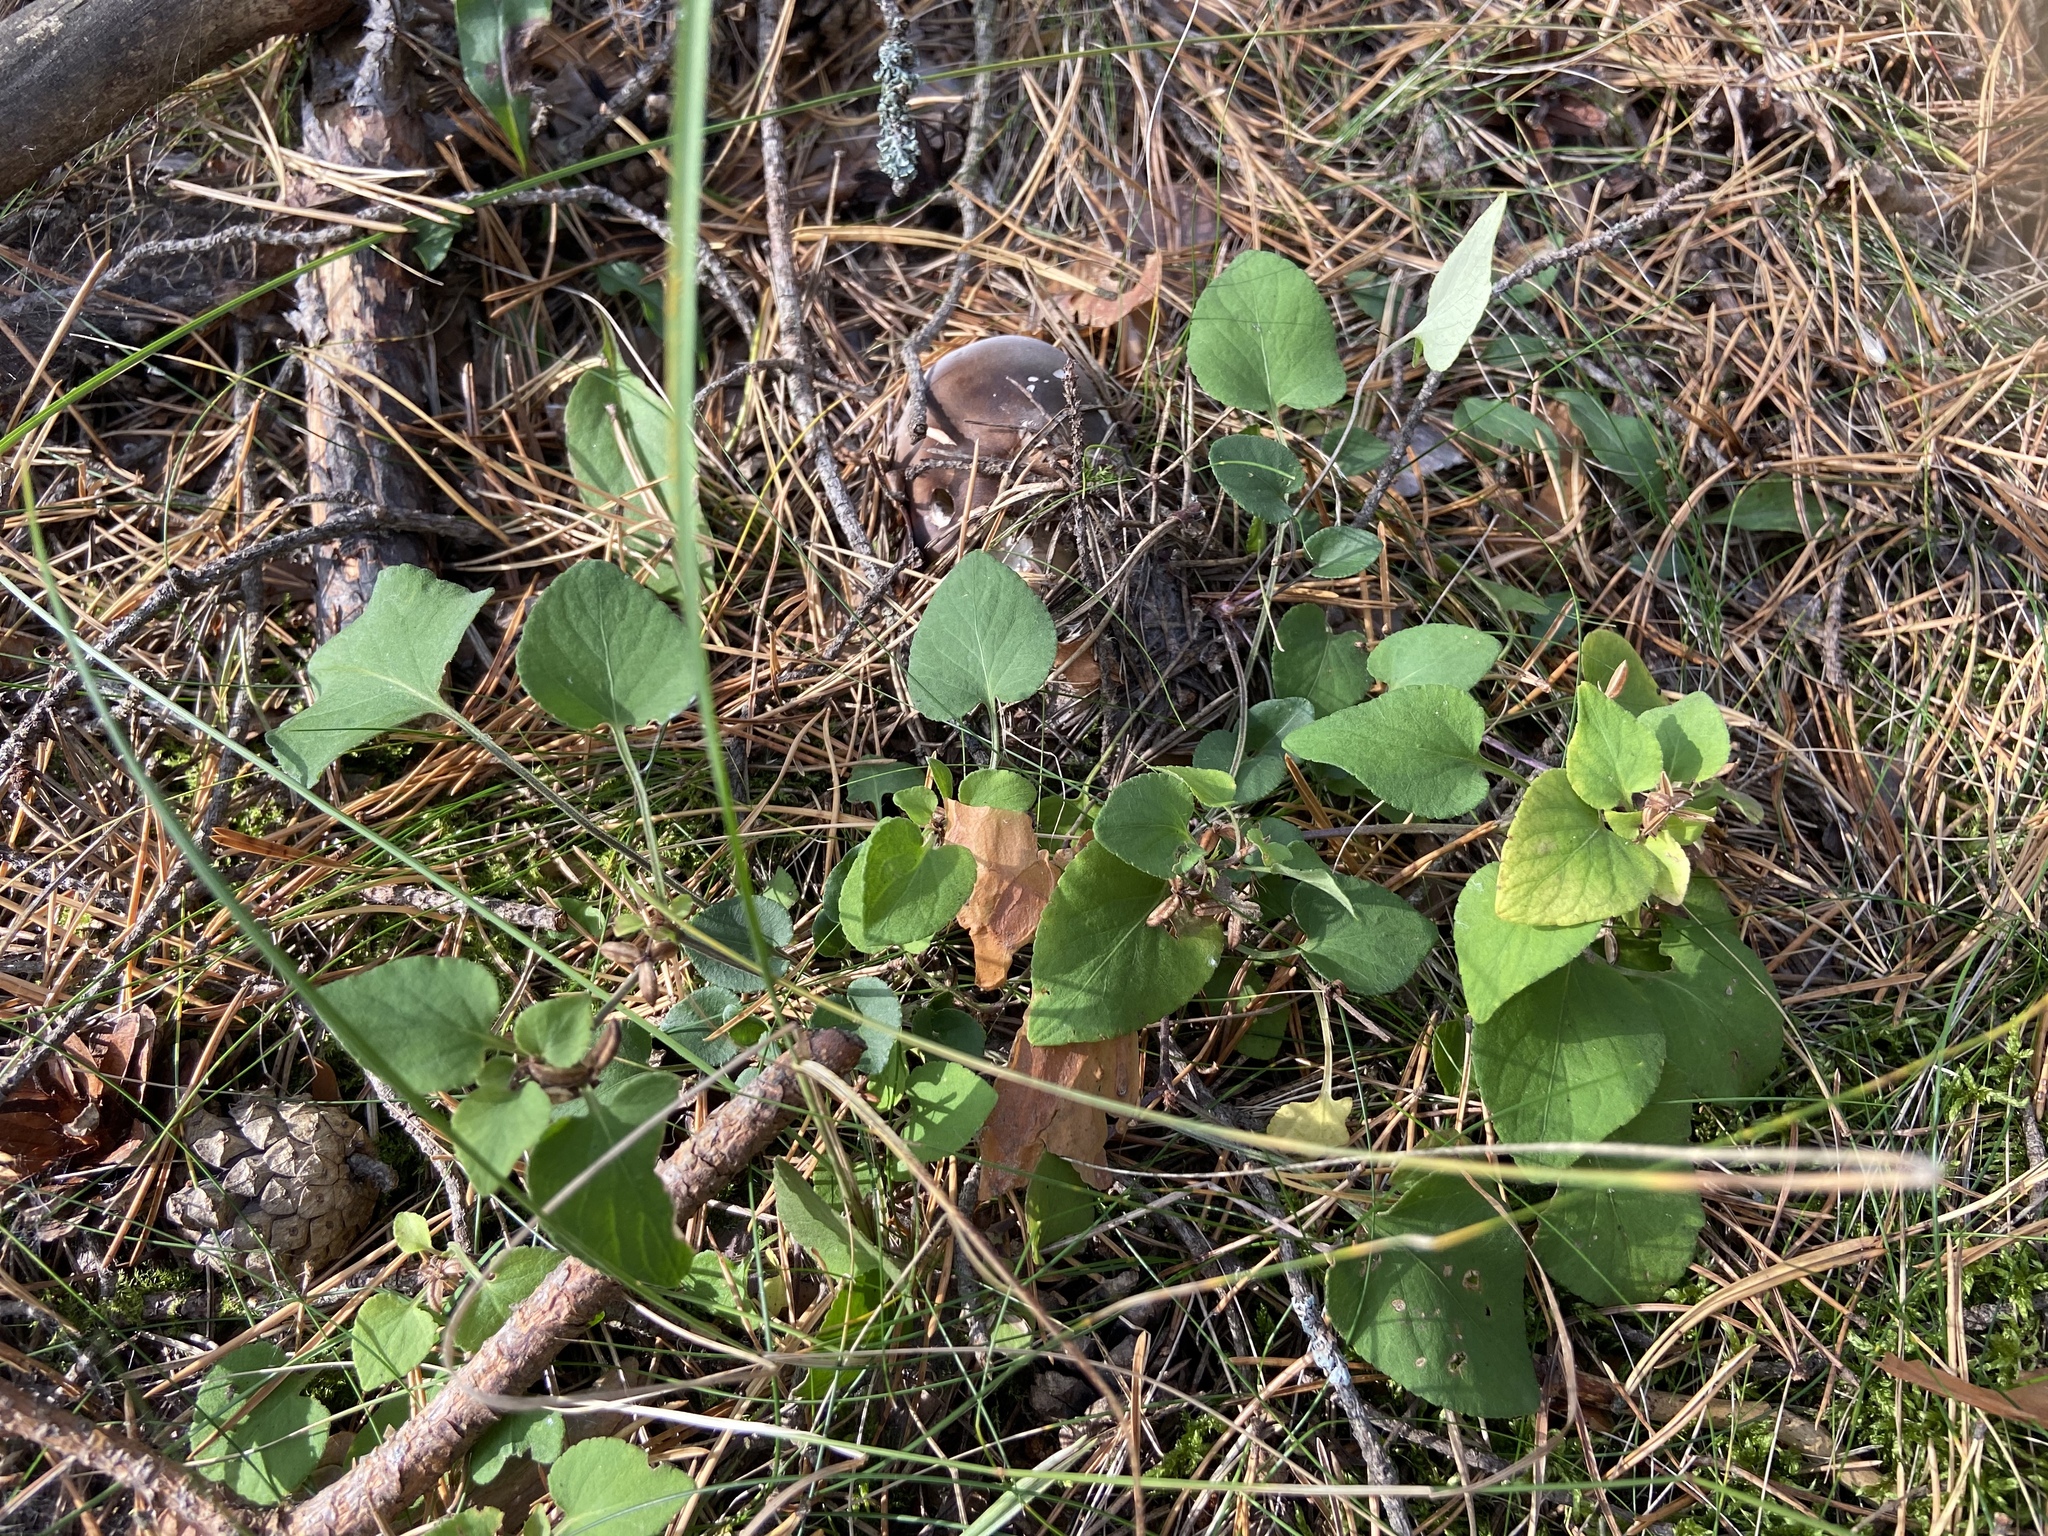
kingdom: Plantae
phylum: Tracheophyta
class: Magnoliopsida
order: Malpighiales
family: Violaceae
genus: Viola
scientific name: Viola rupestris
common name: Teesdale violet
